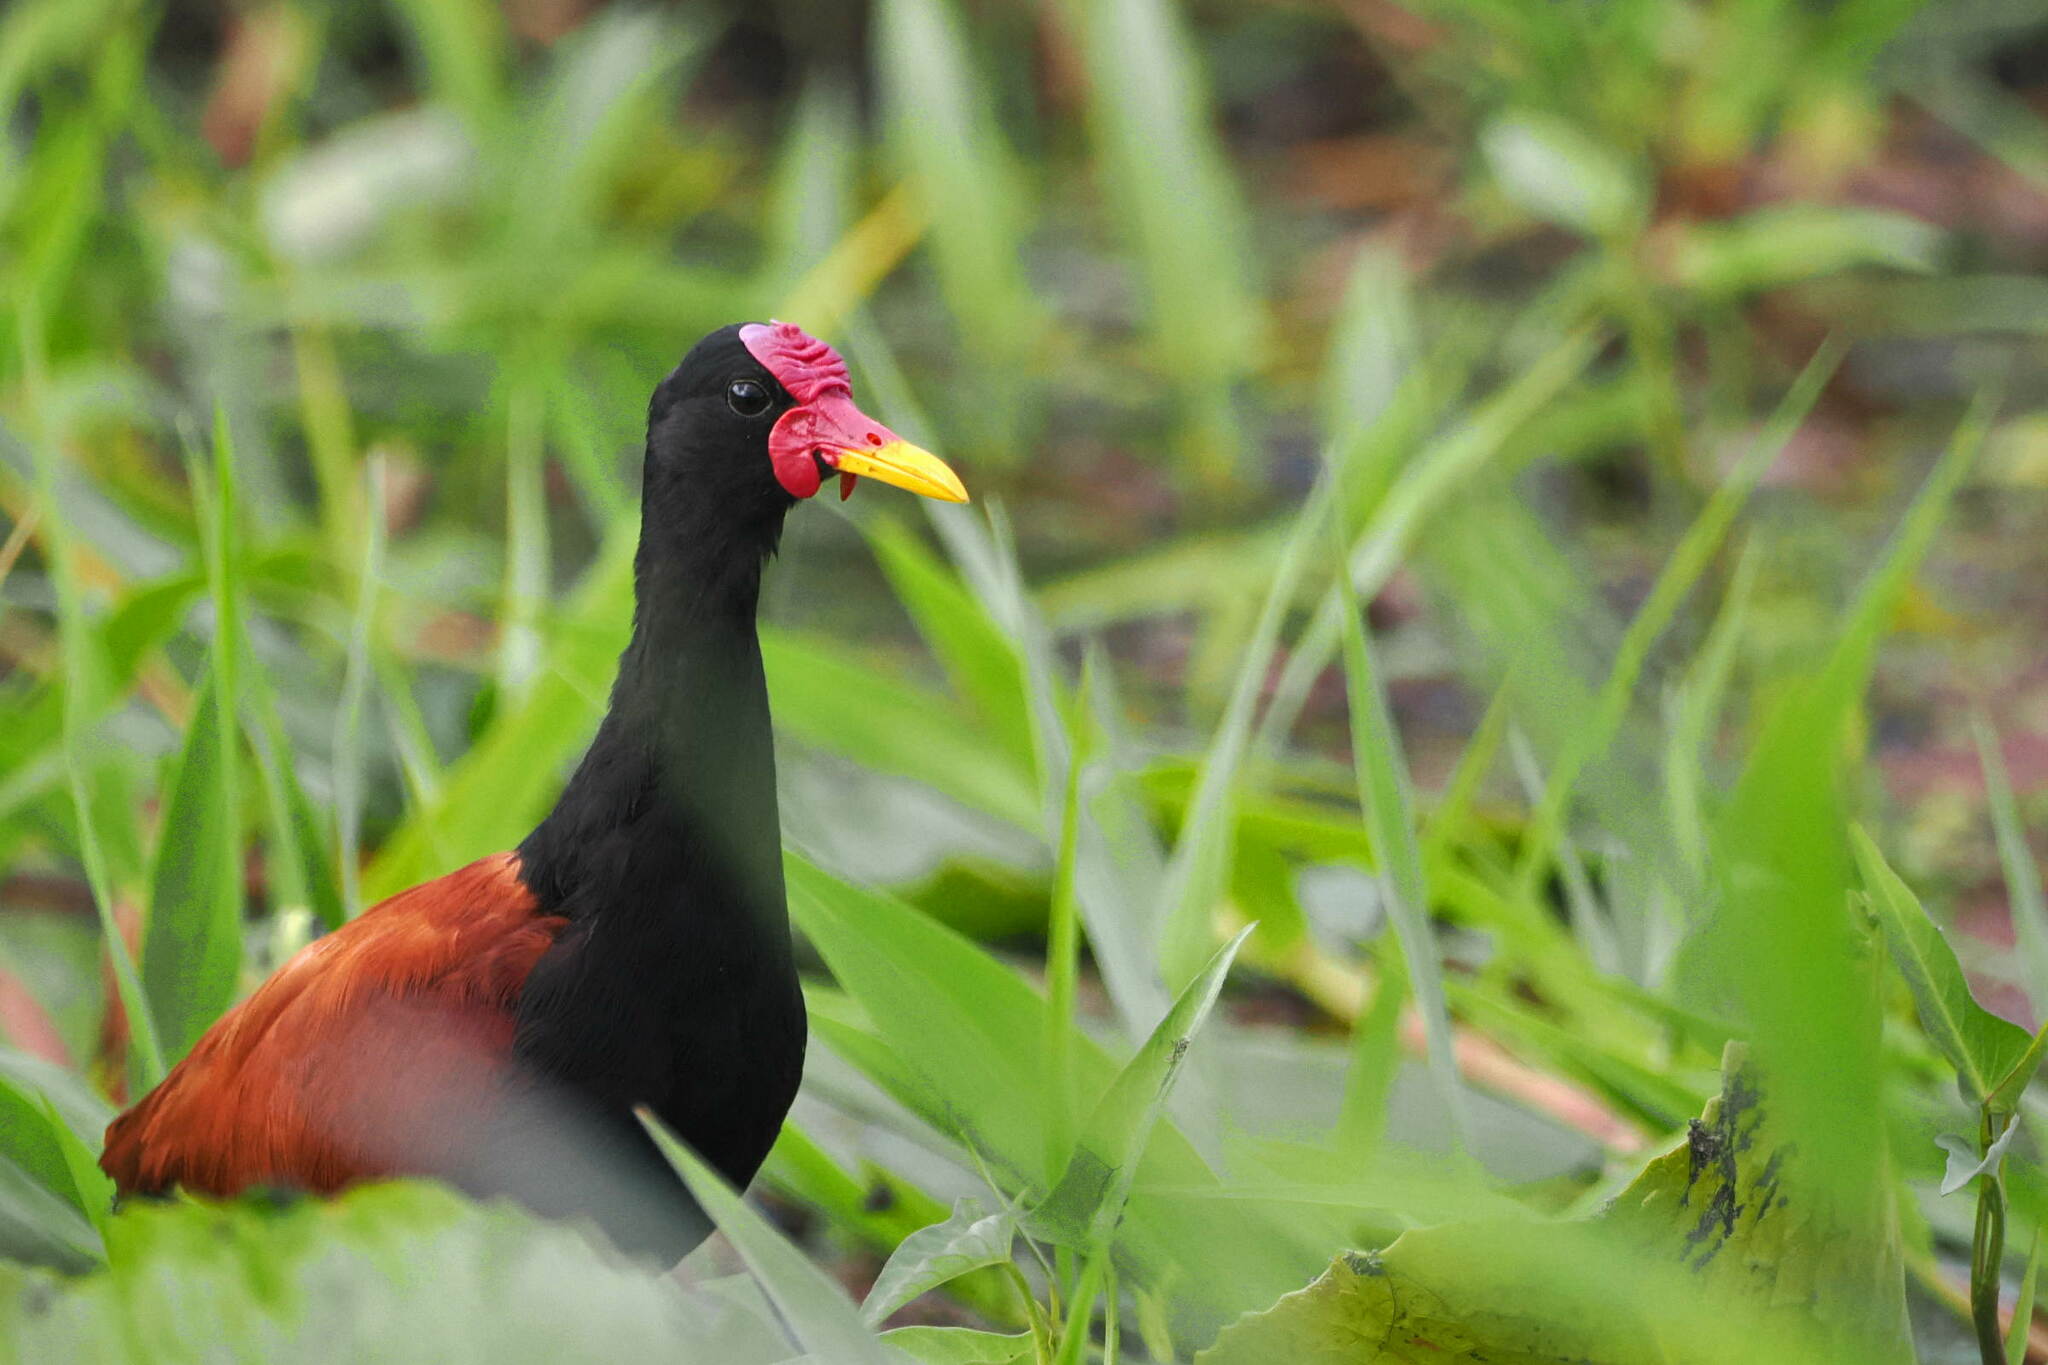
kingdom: Animalia
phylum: Chordata
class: Aves
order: Charadriiformes
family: Jacanidae
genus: Jacana
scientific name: Jacana jacana
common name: Wattled jacana
